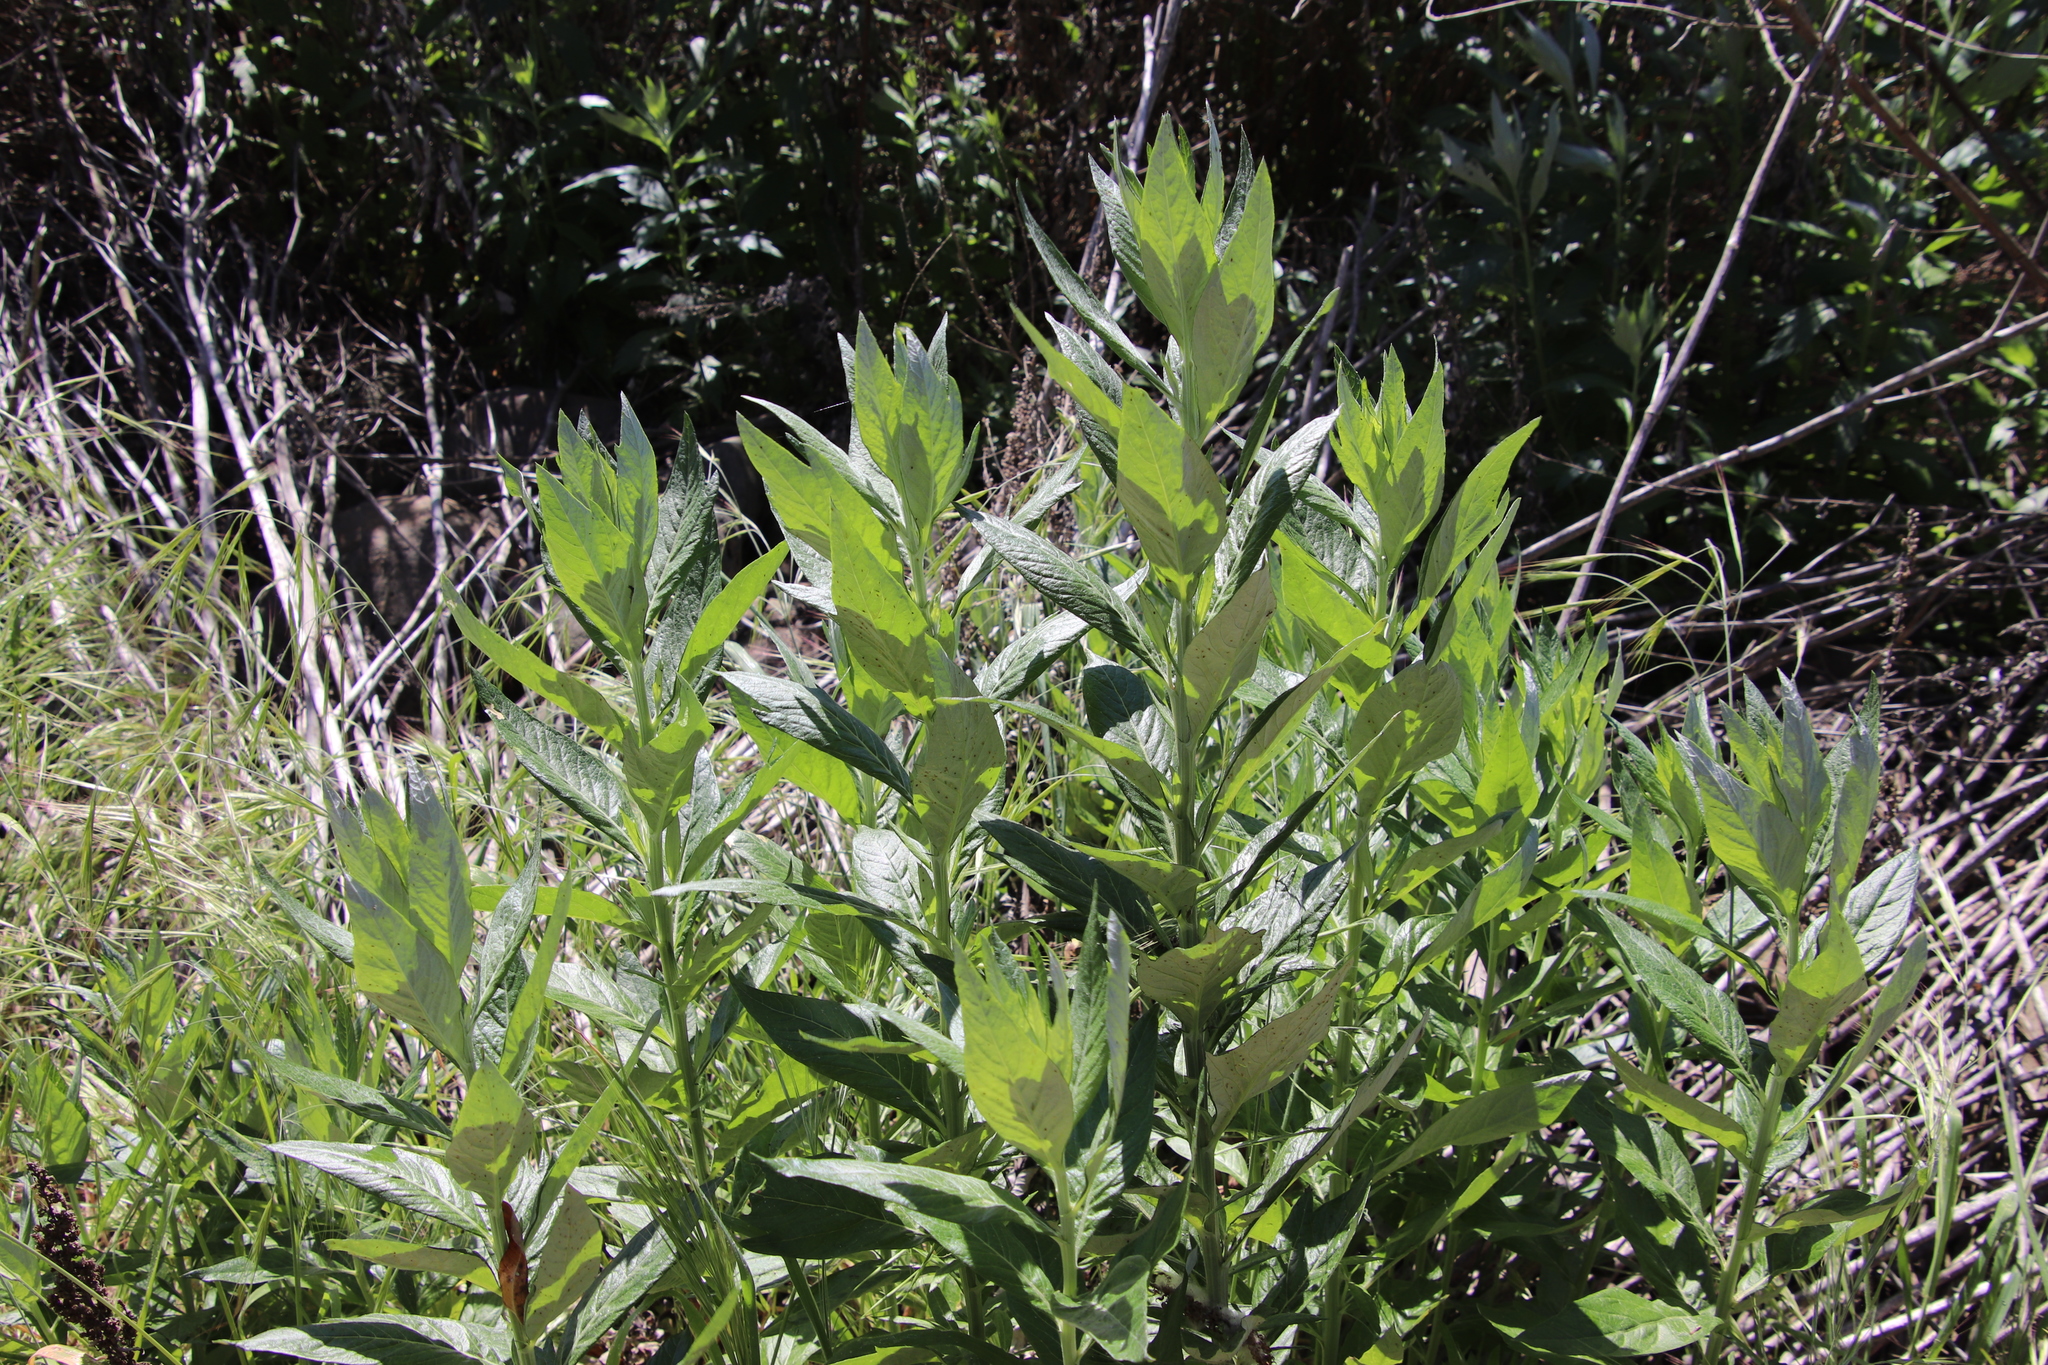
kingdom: Plantae
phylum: Tracheophyta
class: Magnoliopsida
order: Asterales
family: Asteraceae
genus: Artemisia
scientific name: Artemisia douglasiana
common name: Northwest mugwort
